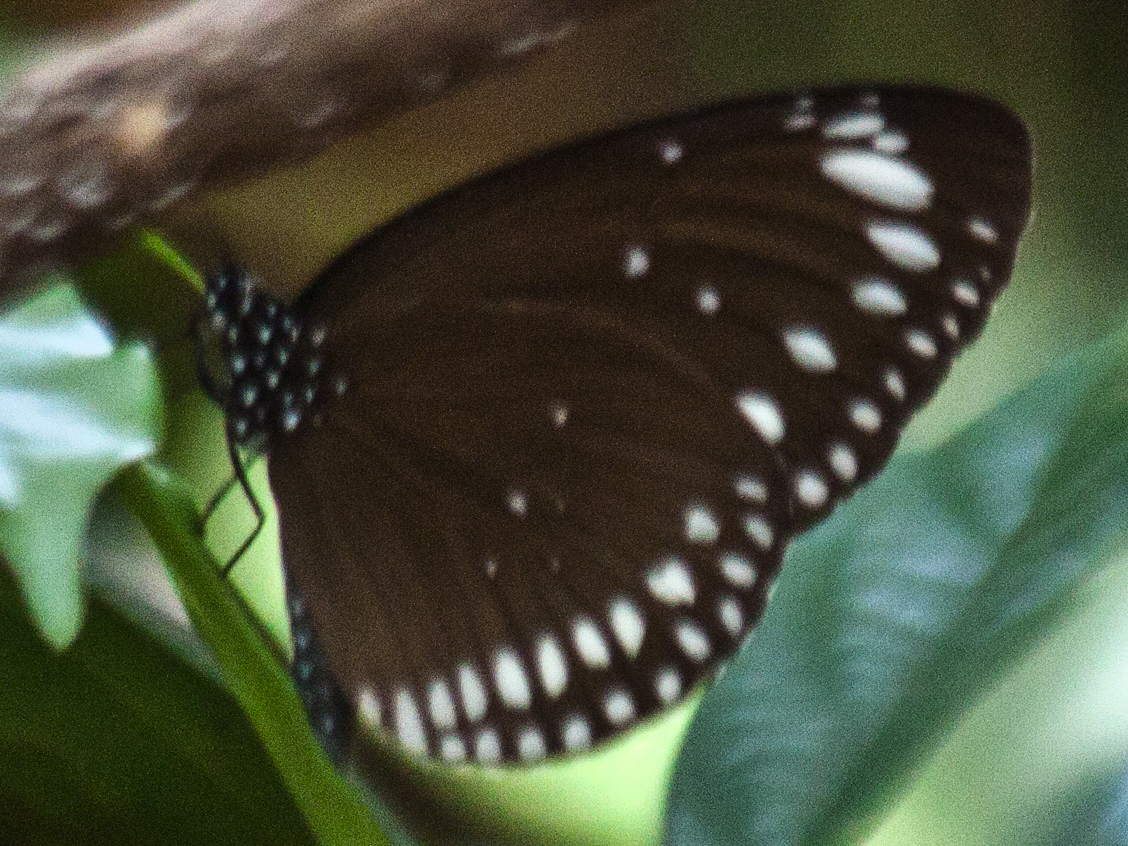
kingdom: Animalia
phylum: Arthropoda
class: Insecta
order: Lepidoptera
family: Nymphalidae
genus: Euploea
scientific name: Euploea crameri
